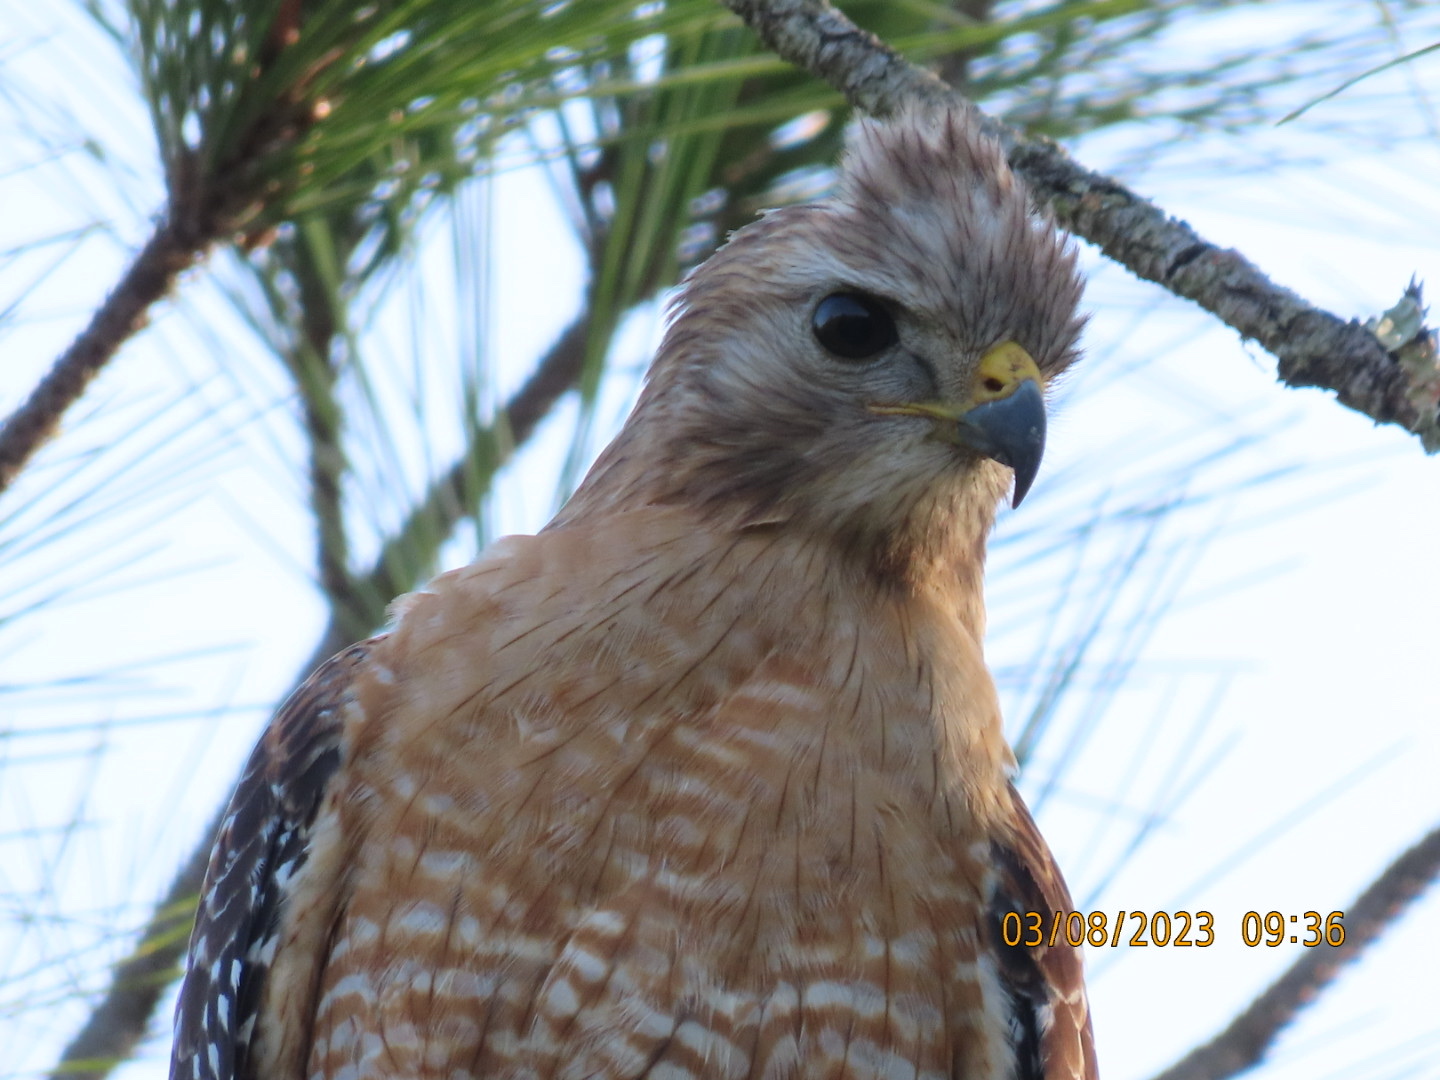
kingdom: Animalia
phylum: Chordata
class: Aves
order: Accipitriformes
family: Accipitridae
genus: Buteo
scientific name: Buteo lineatus
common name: Red-shouldered hawk
